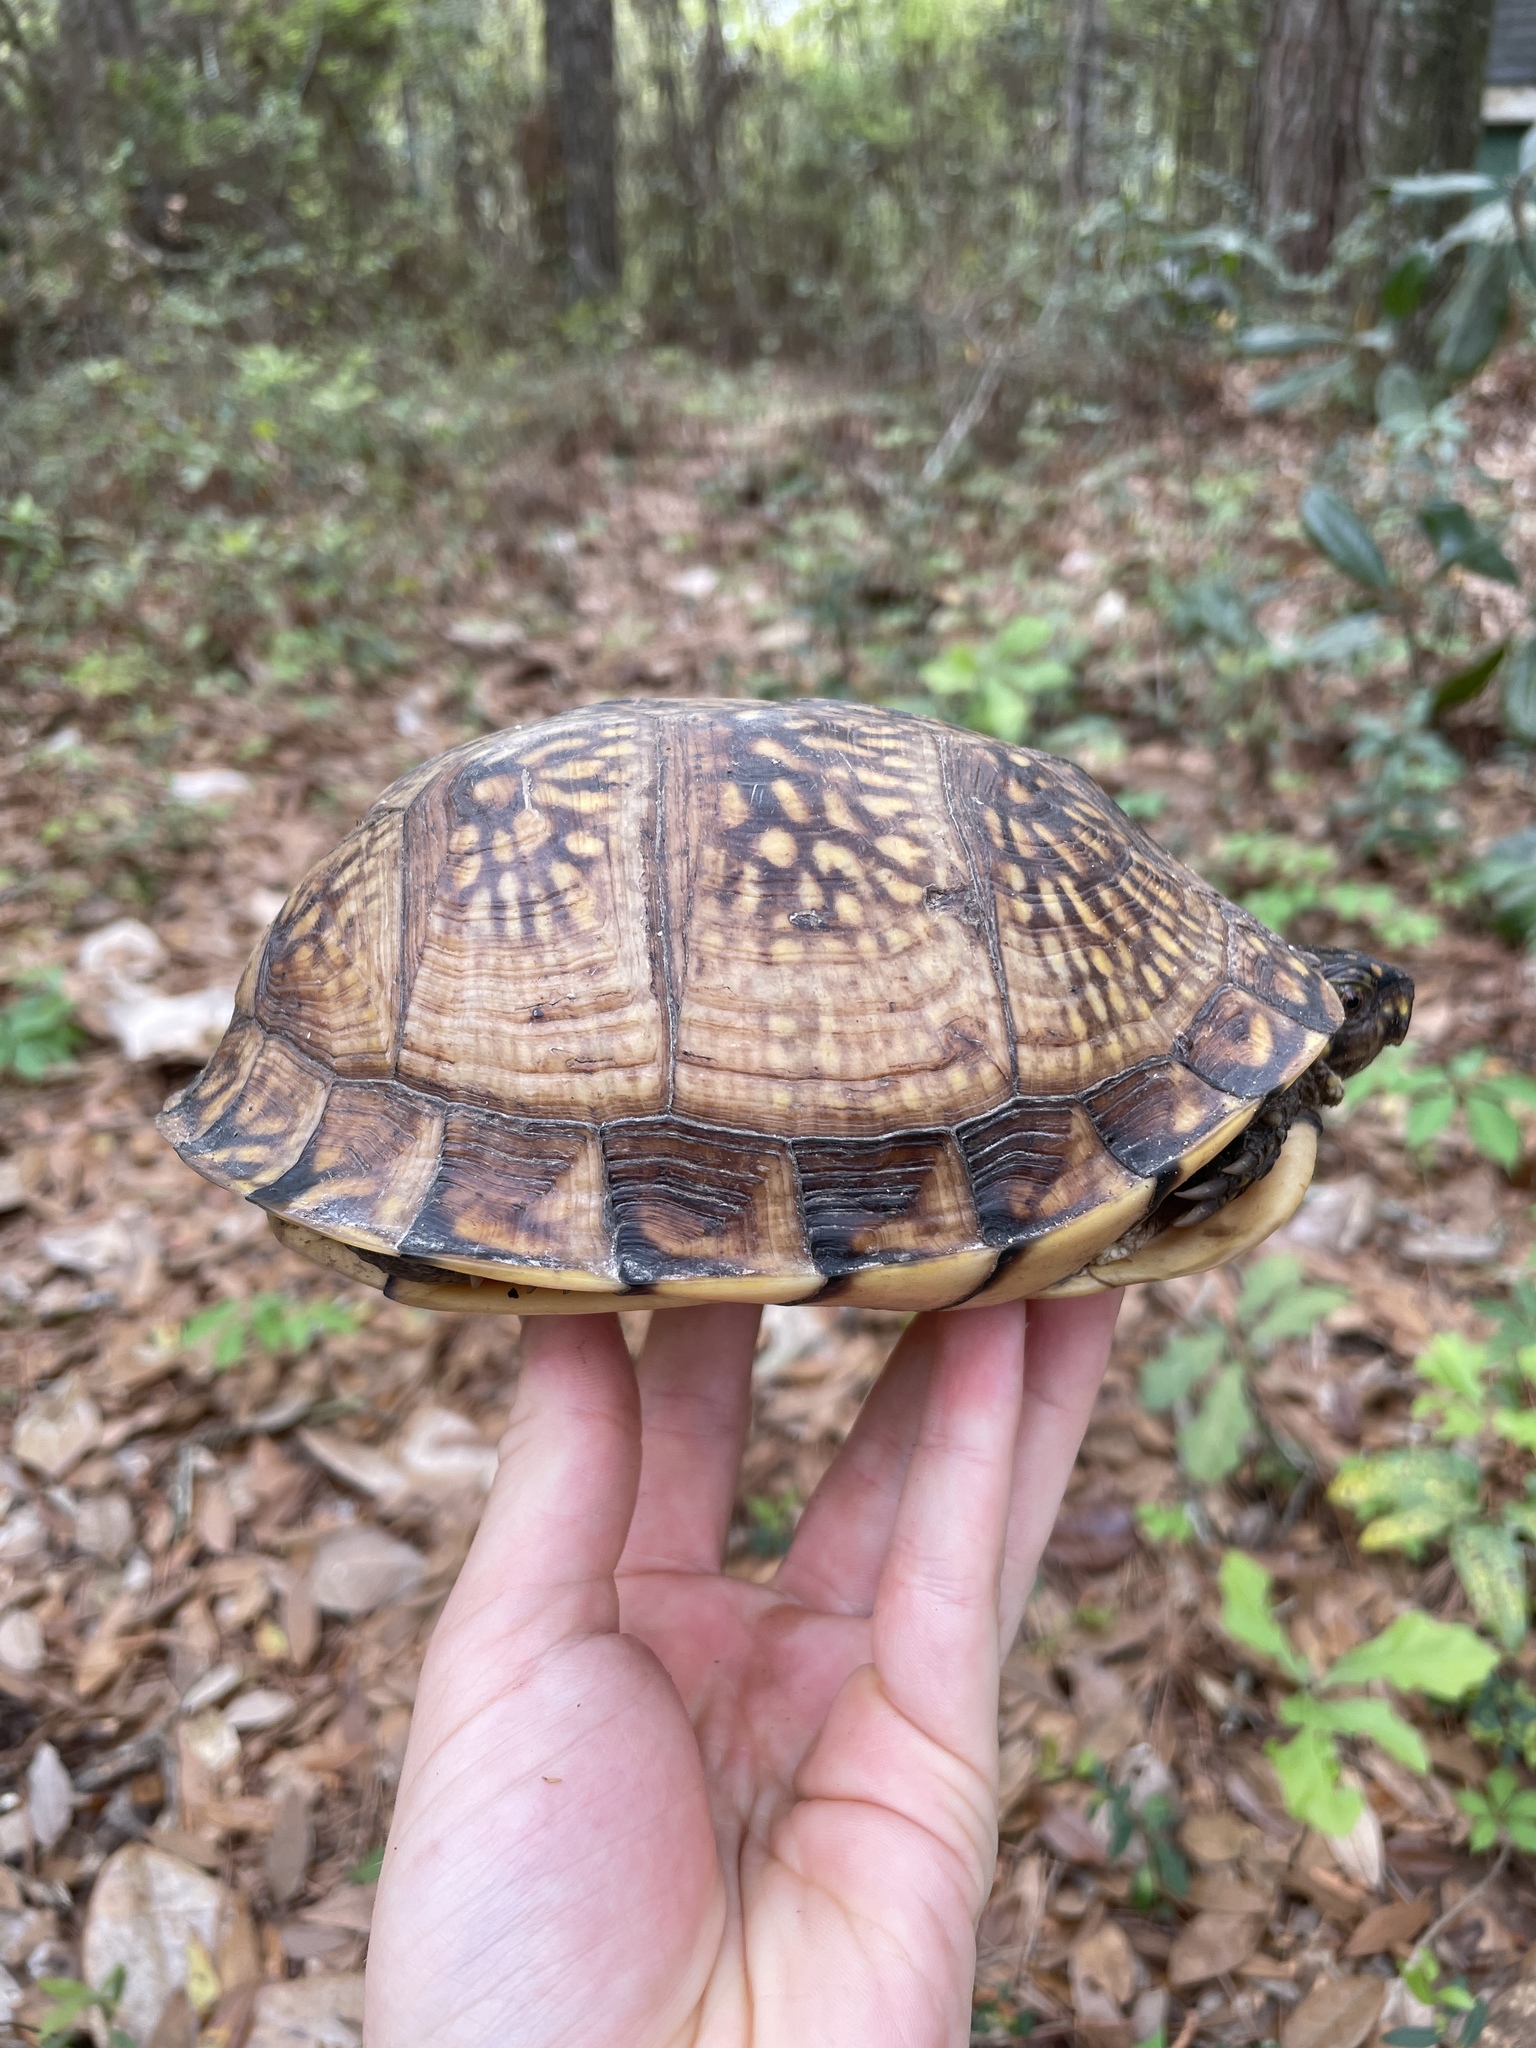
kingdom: Animalia
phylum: Chordata
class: Testudines
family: Emydidae
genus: Terrapene
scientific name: Terrapene carolina
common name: Common box turtle
